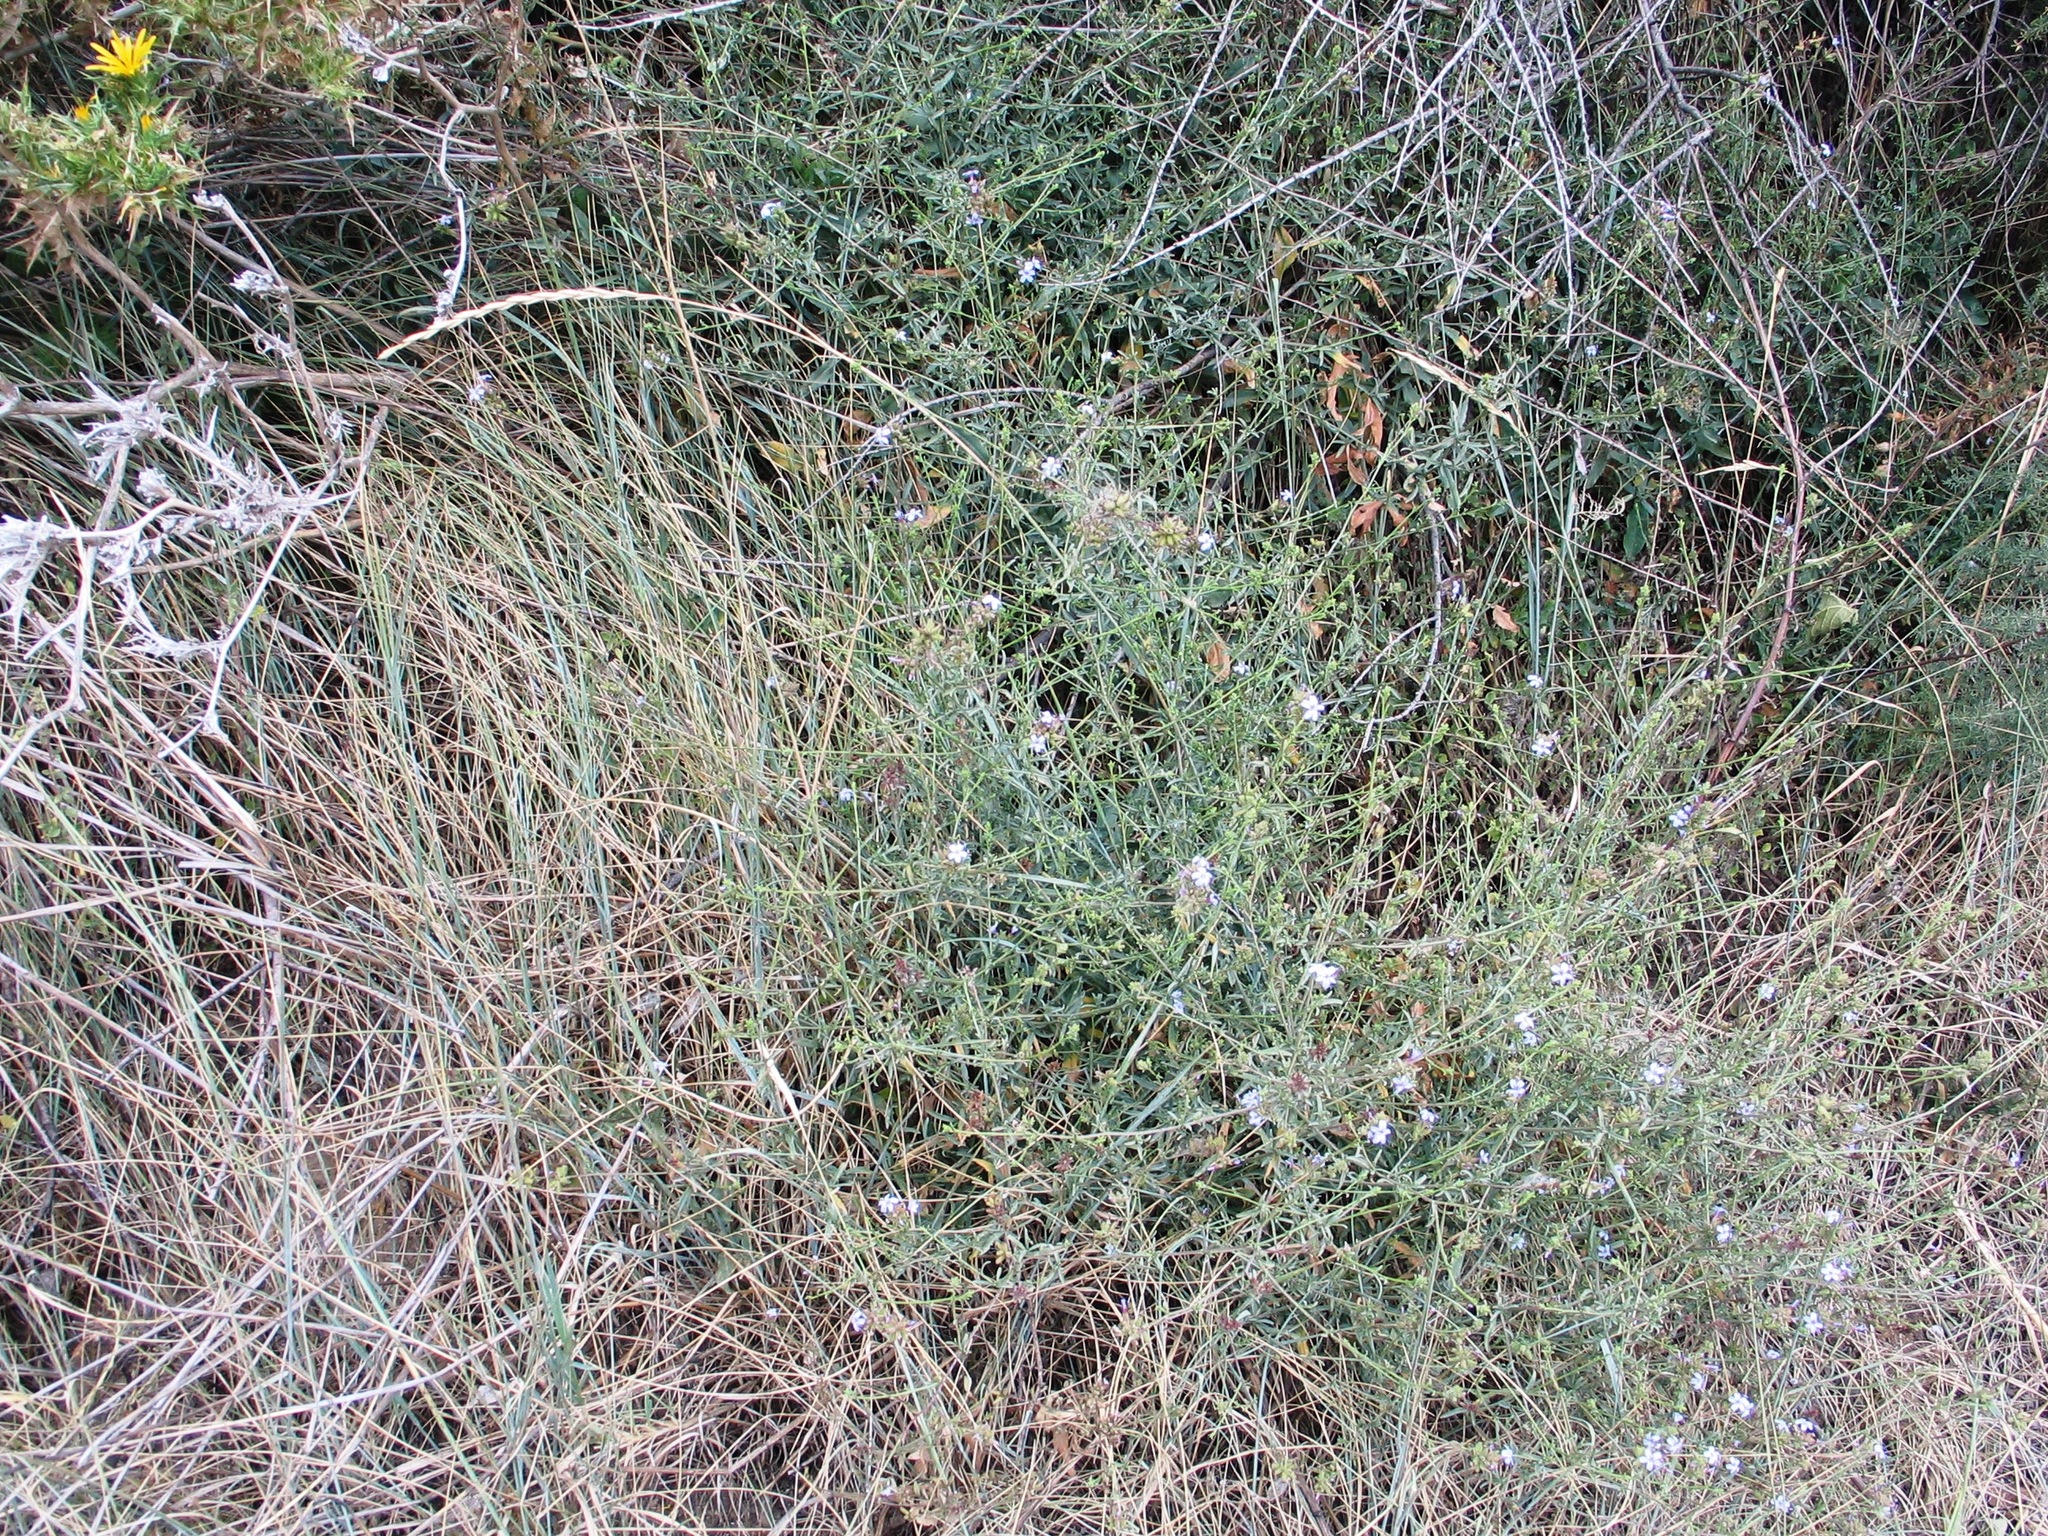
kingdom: Plantae
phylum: Tracheophyta
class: Magnoliopsida
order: Caryophyllales
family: Plumbaginaceae
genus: Plumbago
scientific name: Plumbago europaea
